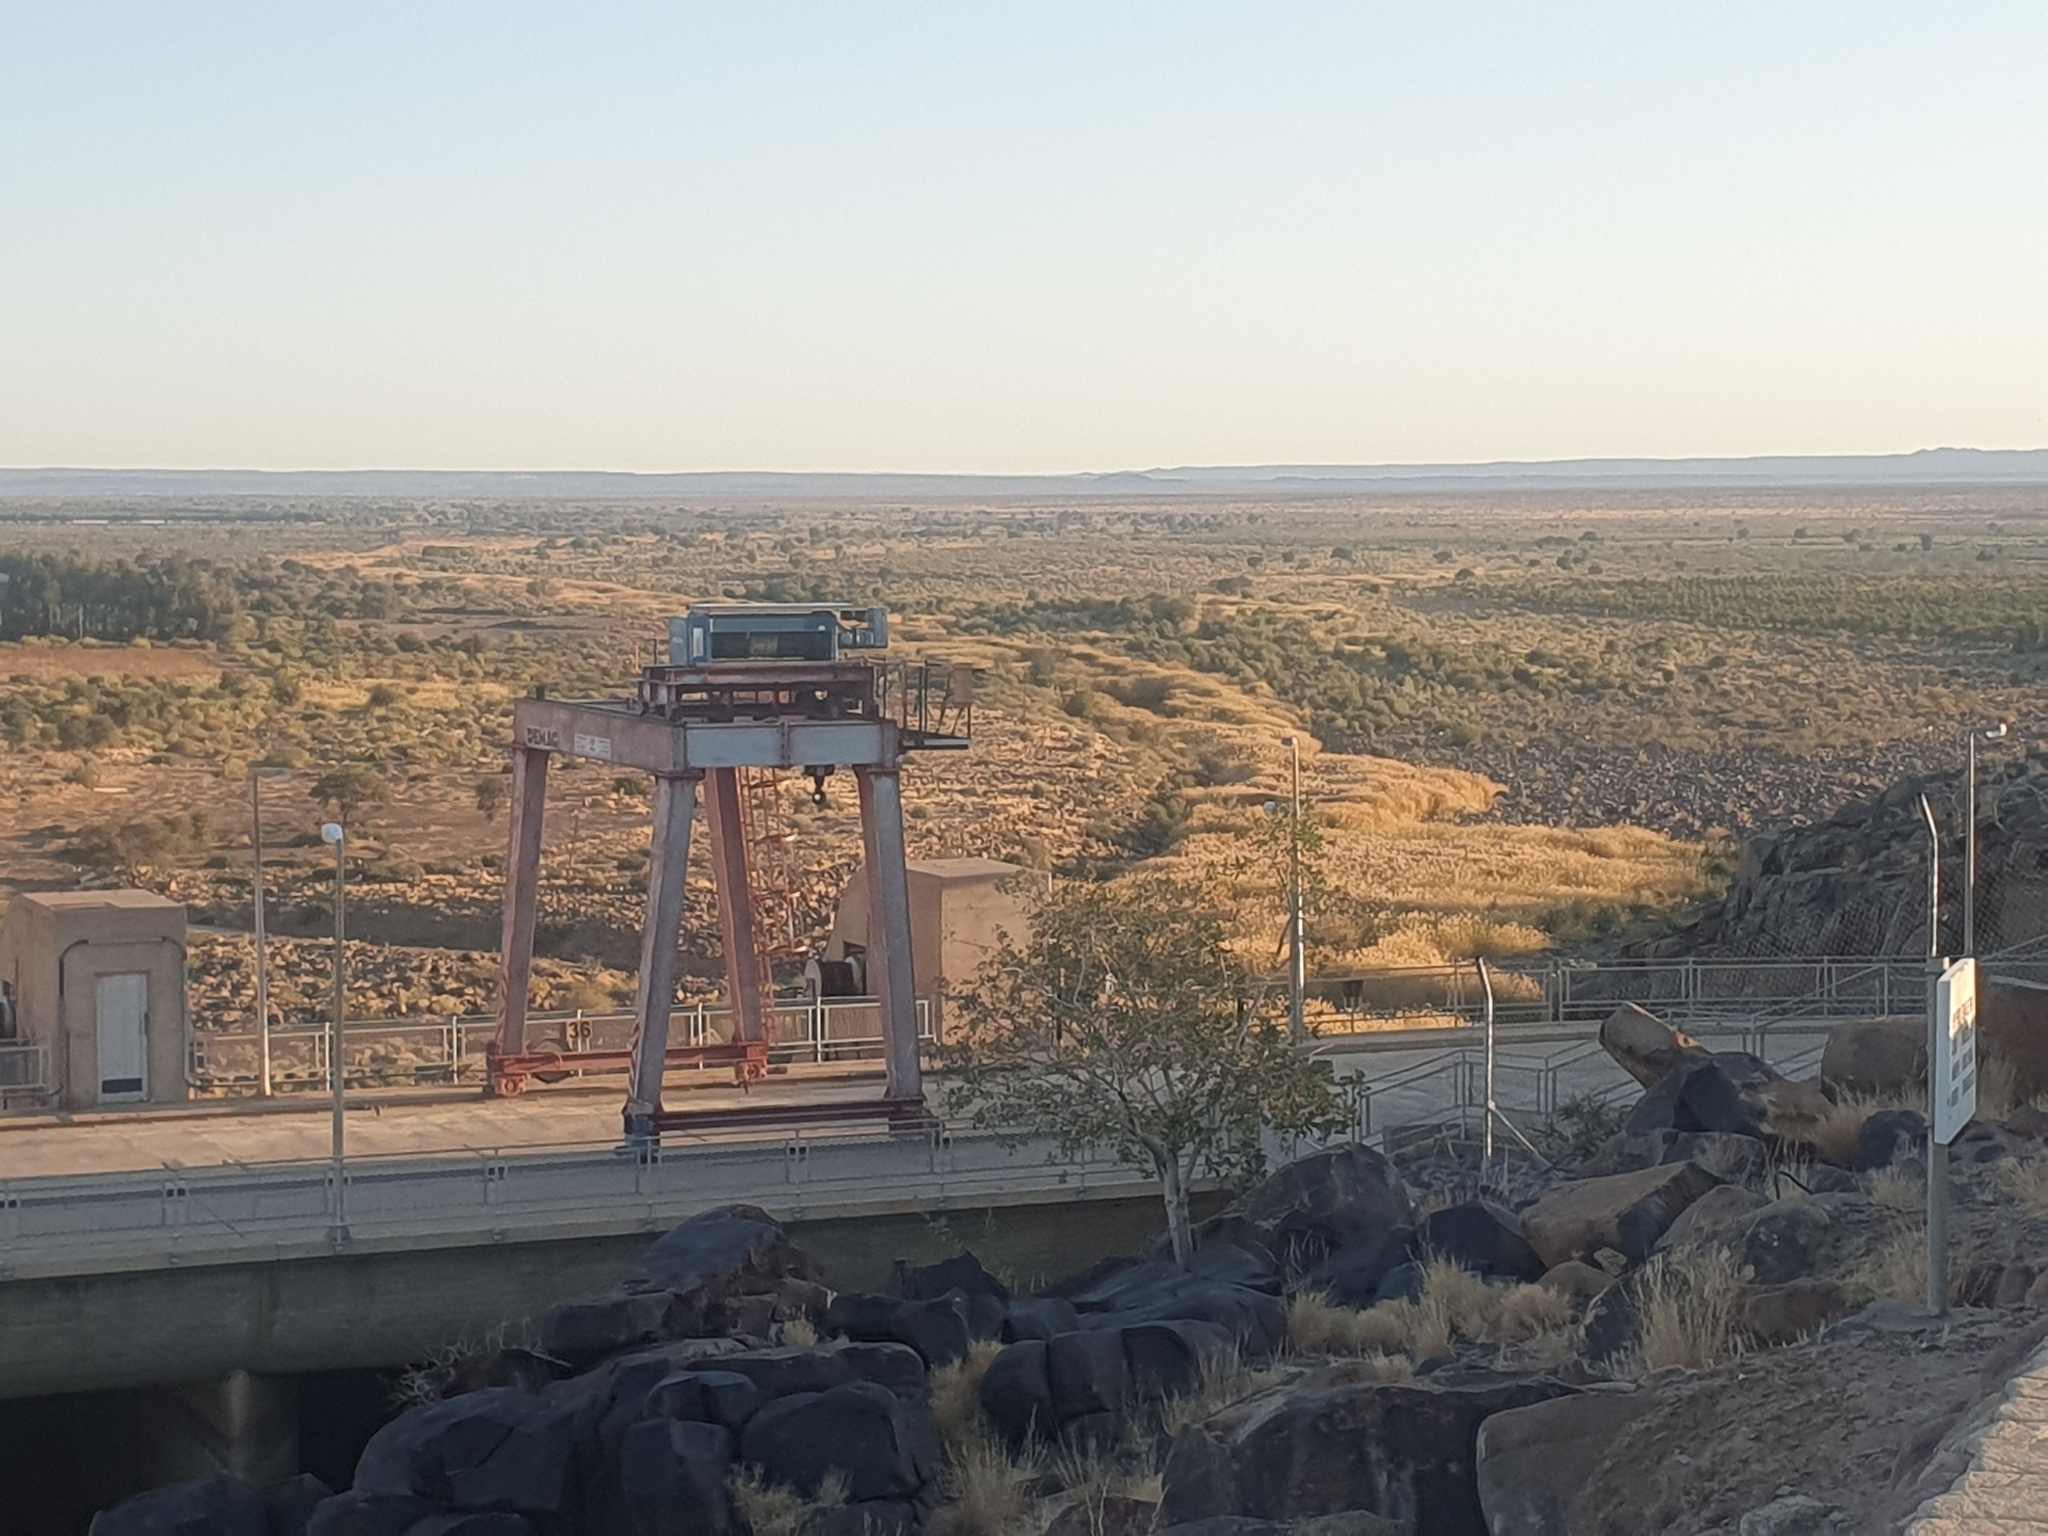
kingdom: Plantae
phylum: Tracheophyta
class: Magnoliopsida
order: Brassicales
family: Capparaceae
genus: Maerua
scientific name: Maerua schinzii
